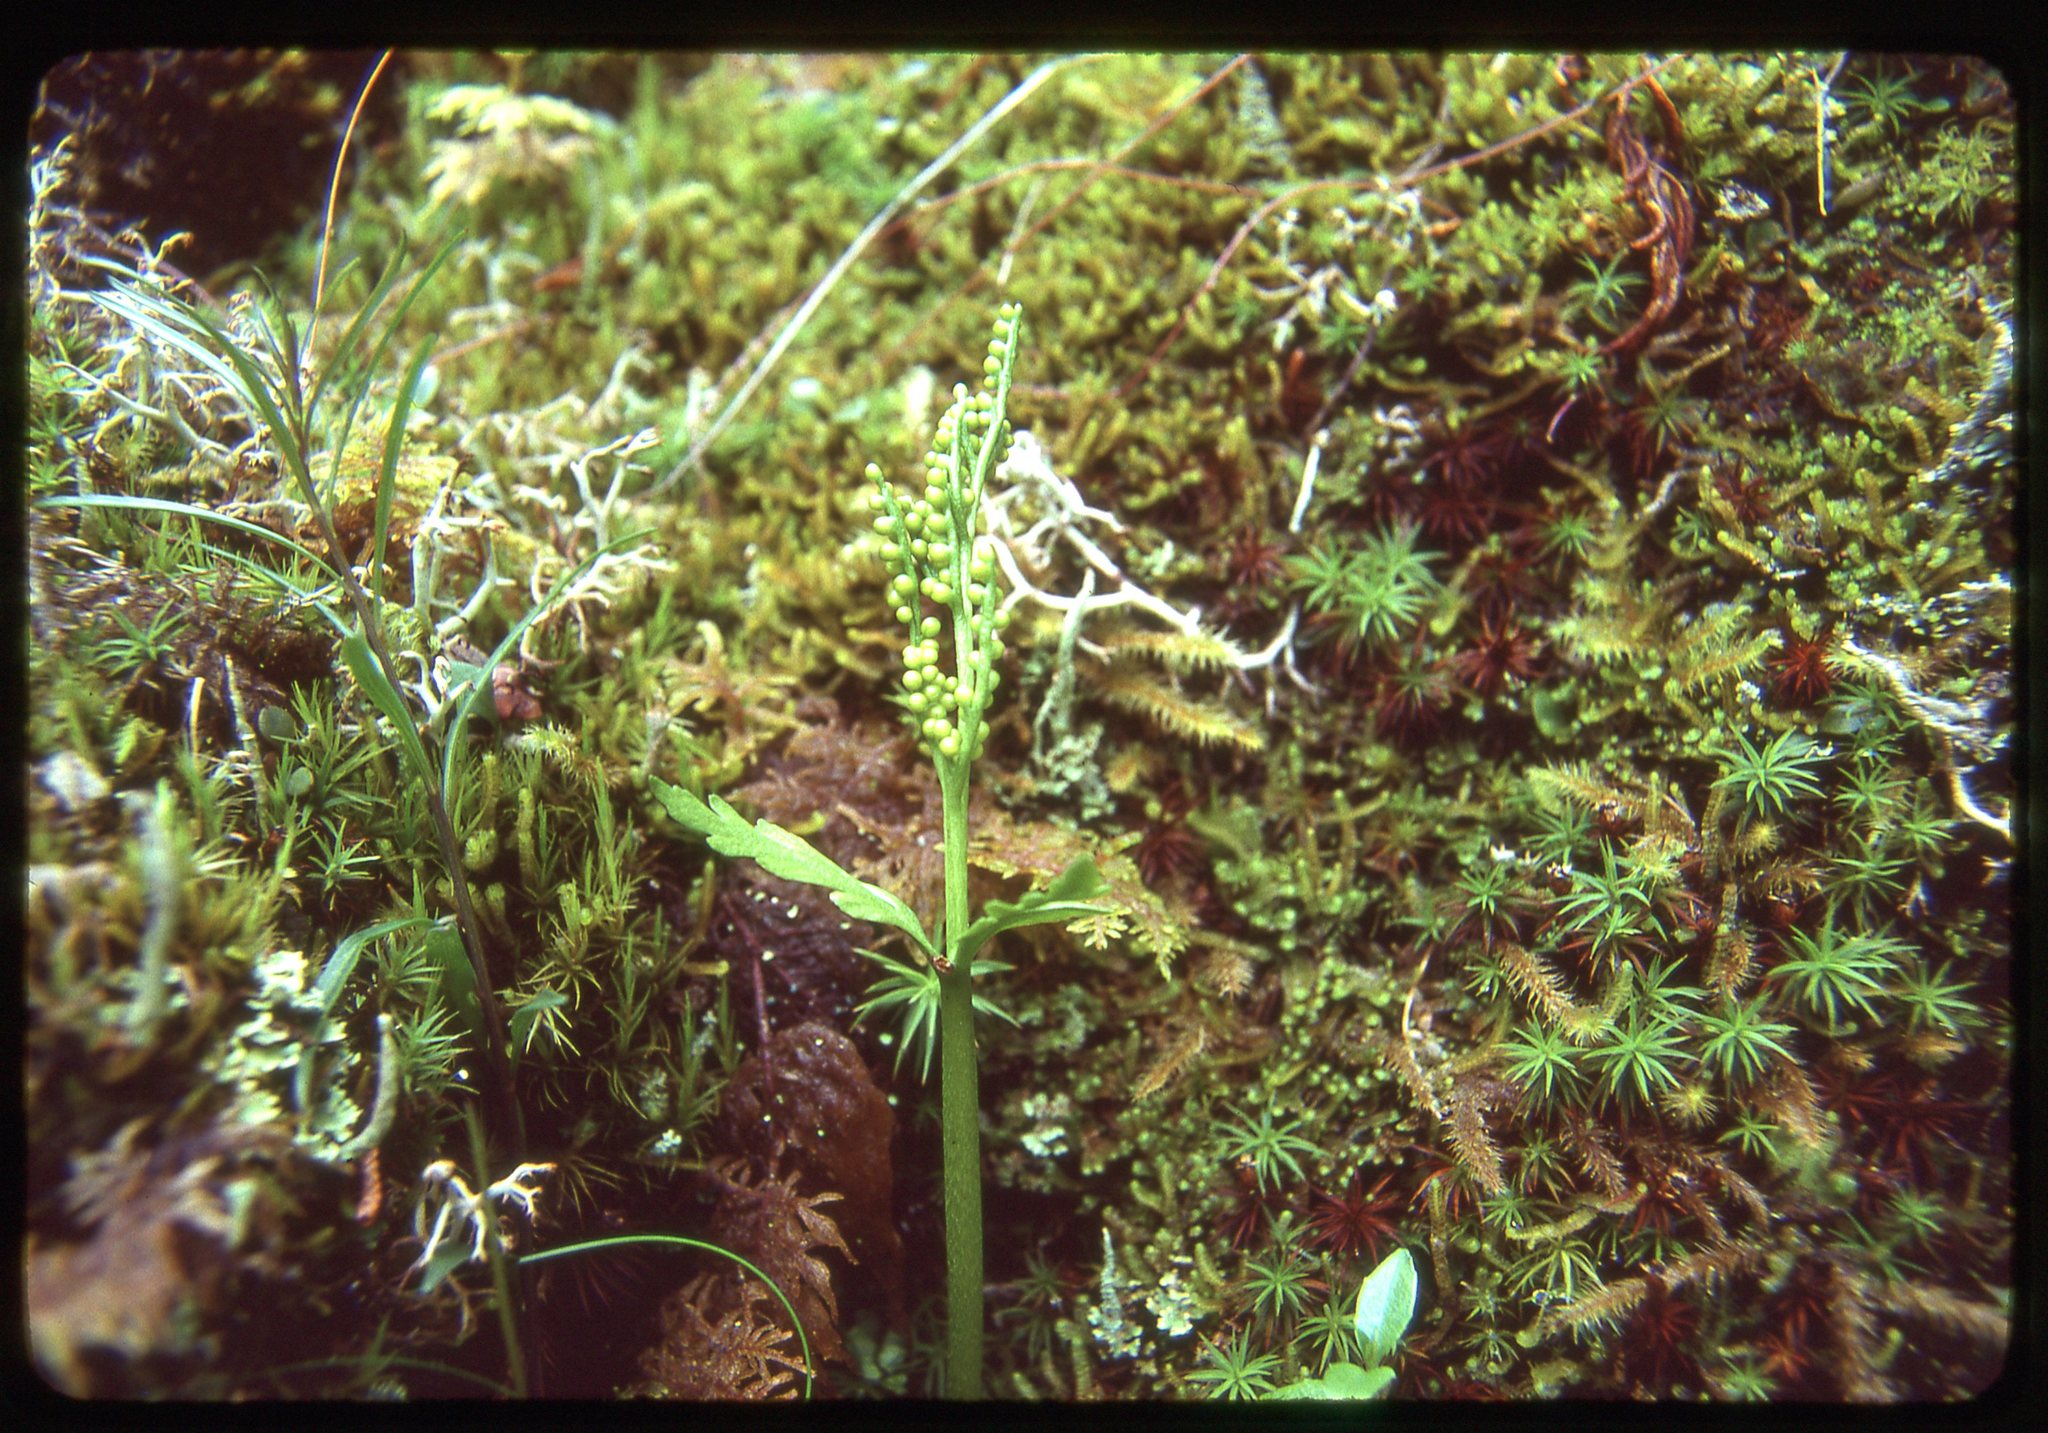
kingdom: Plantae
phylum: Tracheophyta
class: Polypodiopsida
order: Ophioglossales
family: Ophioglossaceae
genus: Botrychium
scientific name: Botrychium lanceolatum
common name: Lance-leaved moonwort
